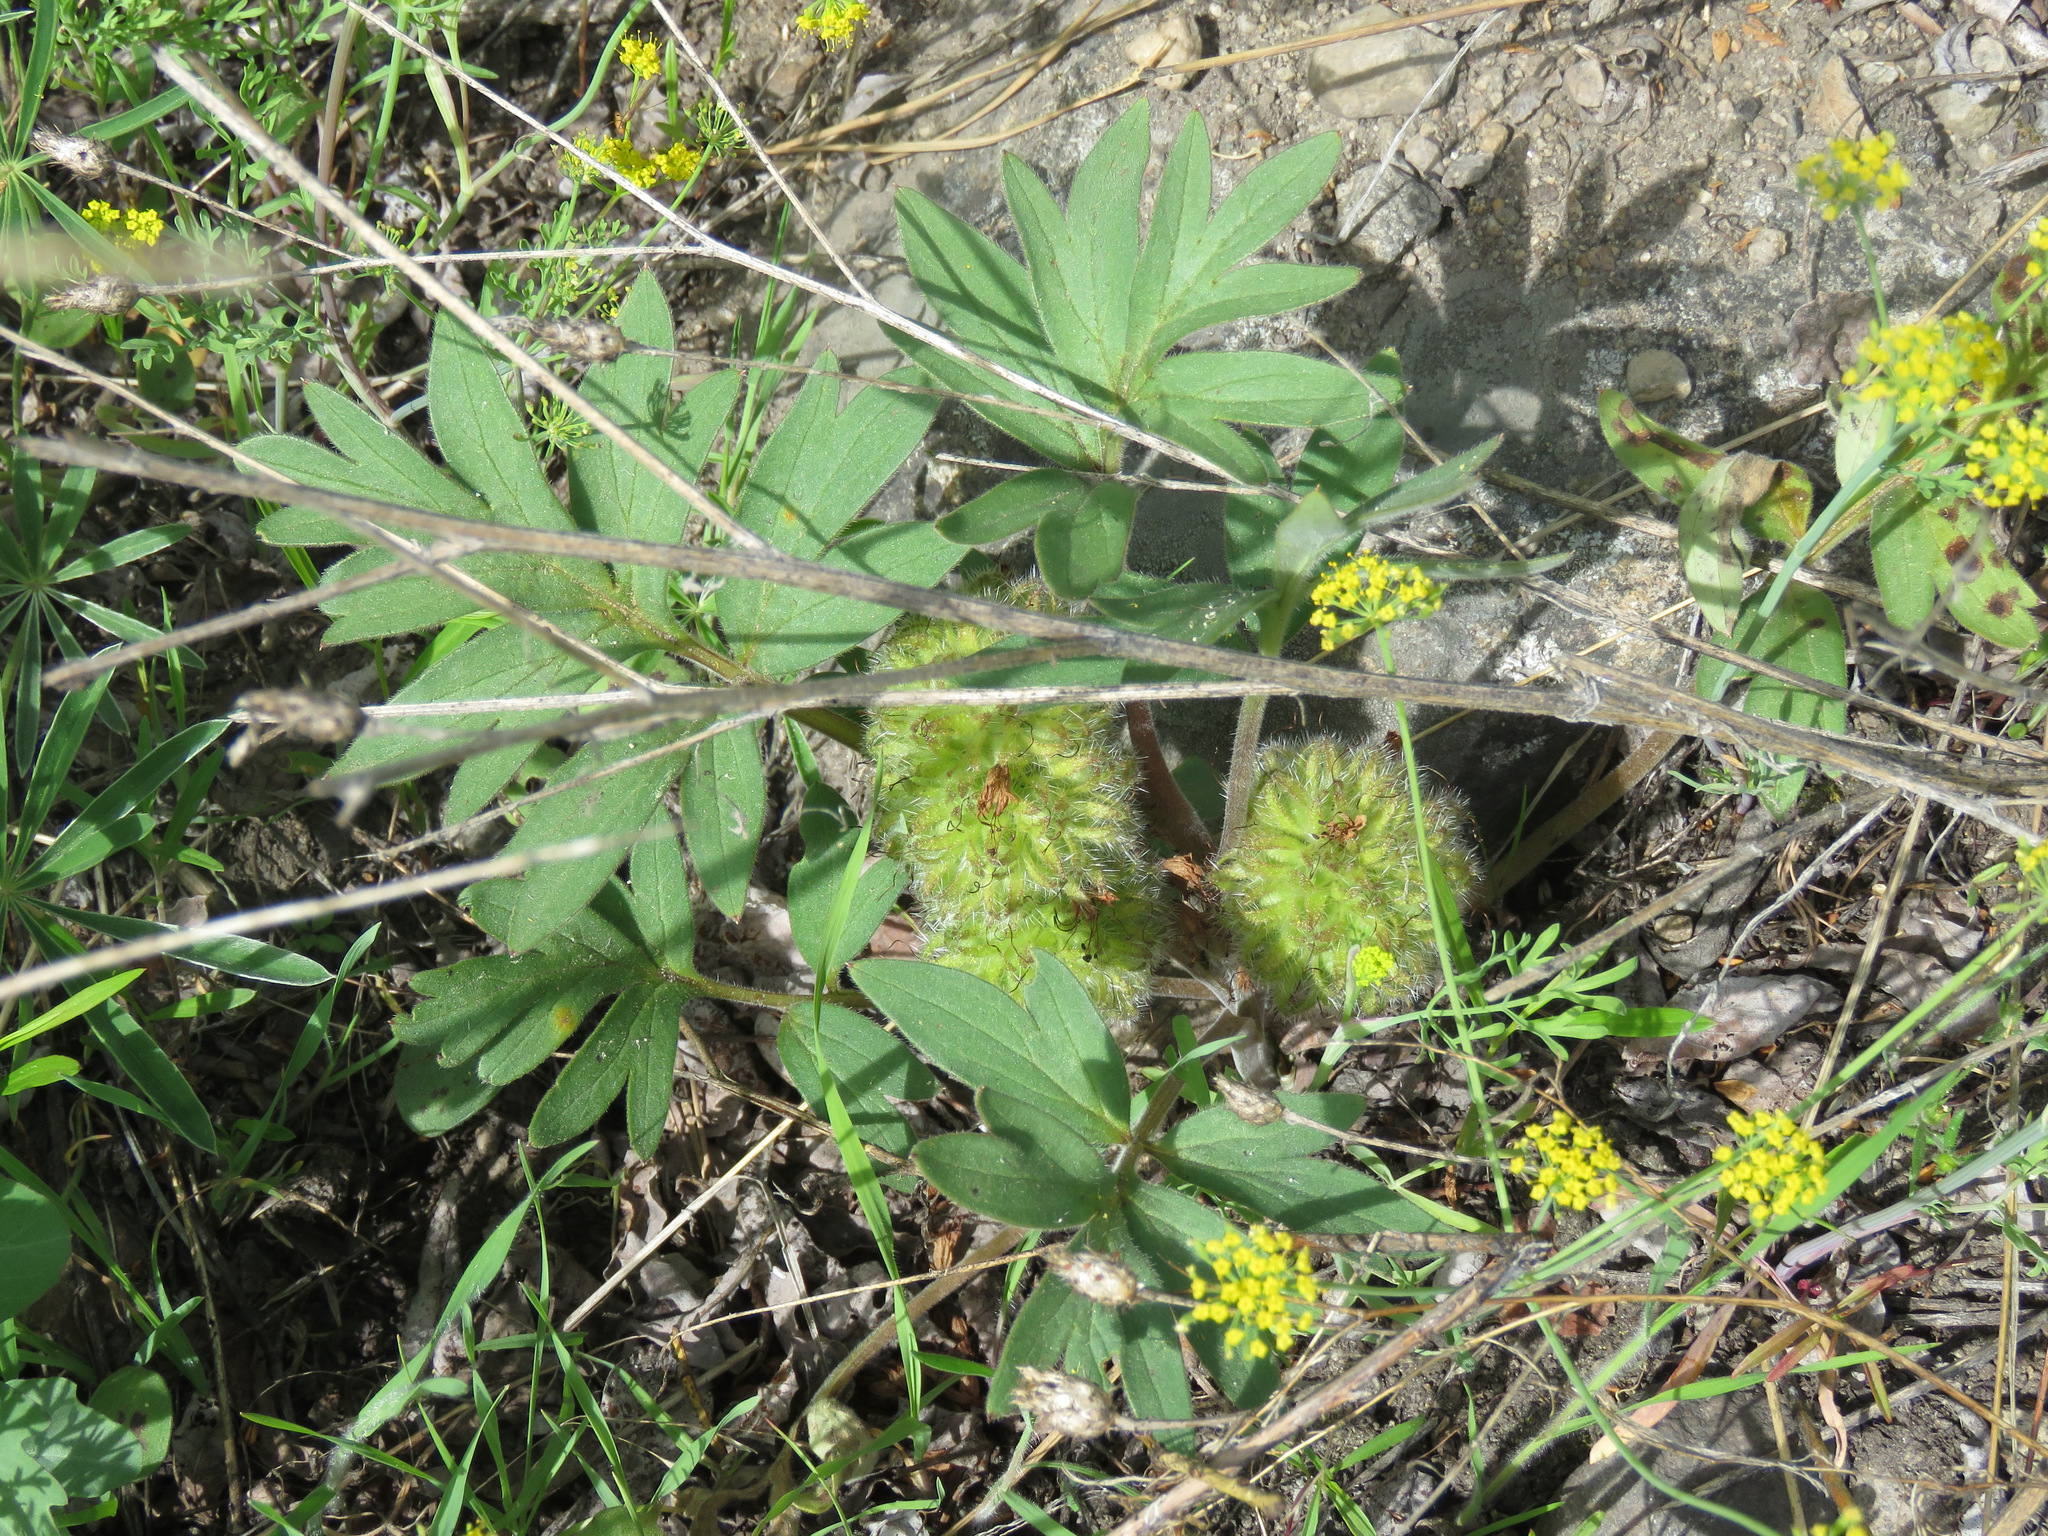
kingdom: Plantae
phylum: Tracheophyta
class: Magnoliopsida
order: Boraginales
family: Hydrophyllaceae
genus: Hydrophyllum
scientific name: Hydrophyllum capitatum
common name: Woollen-breeches
